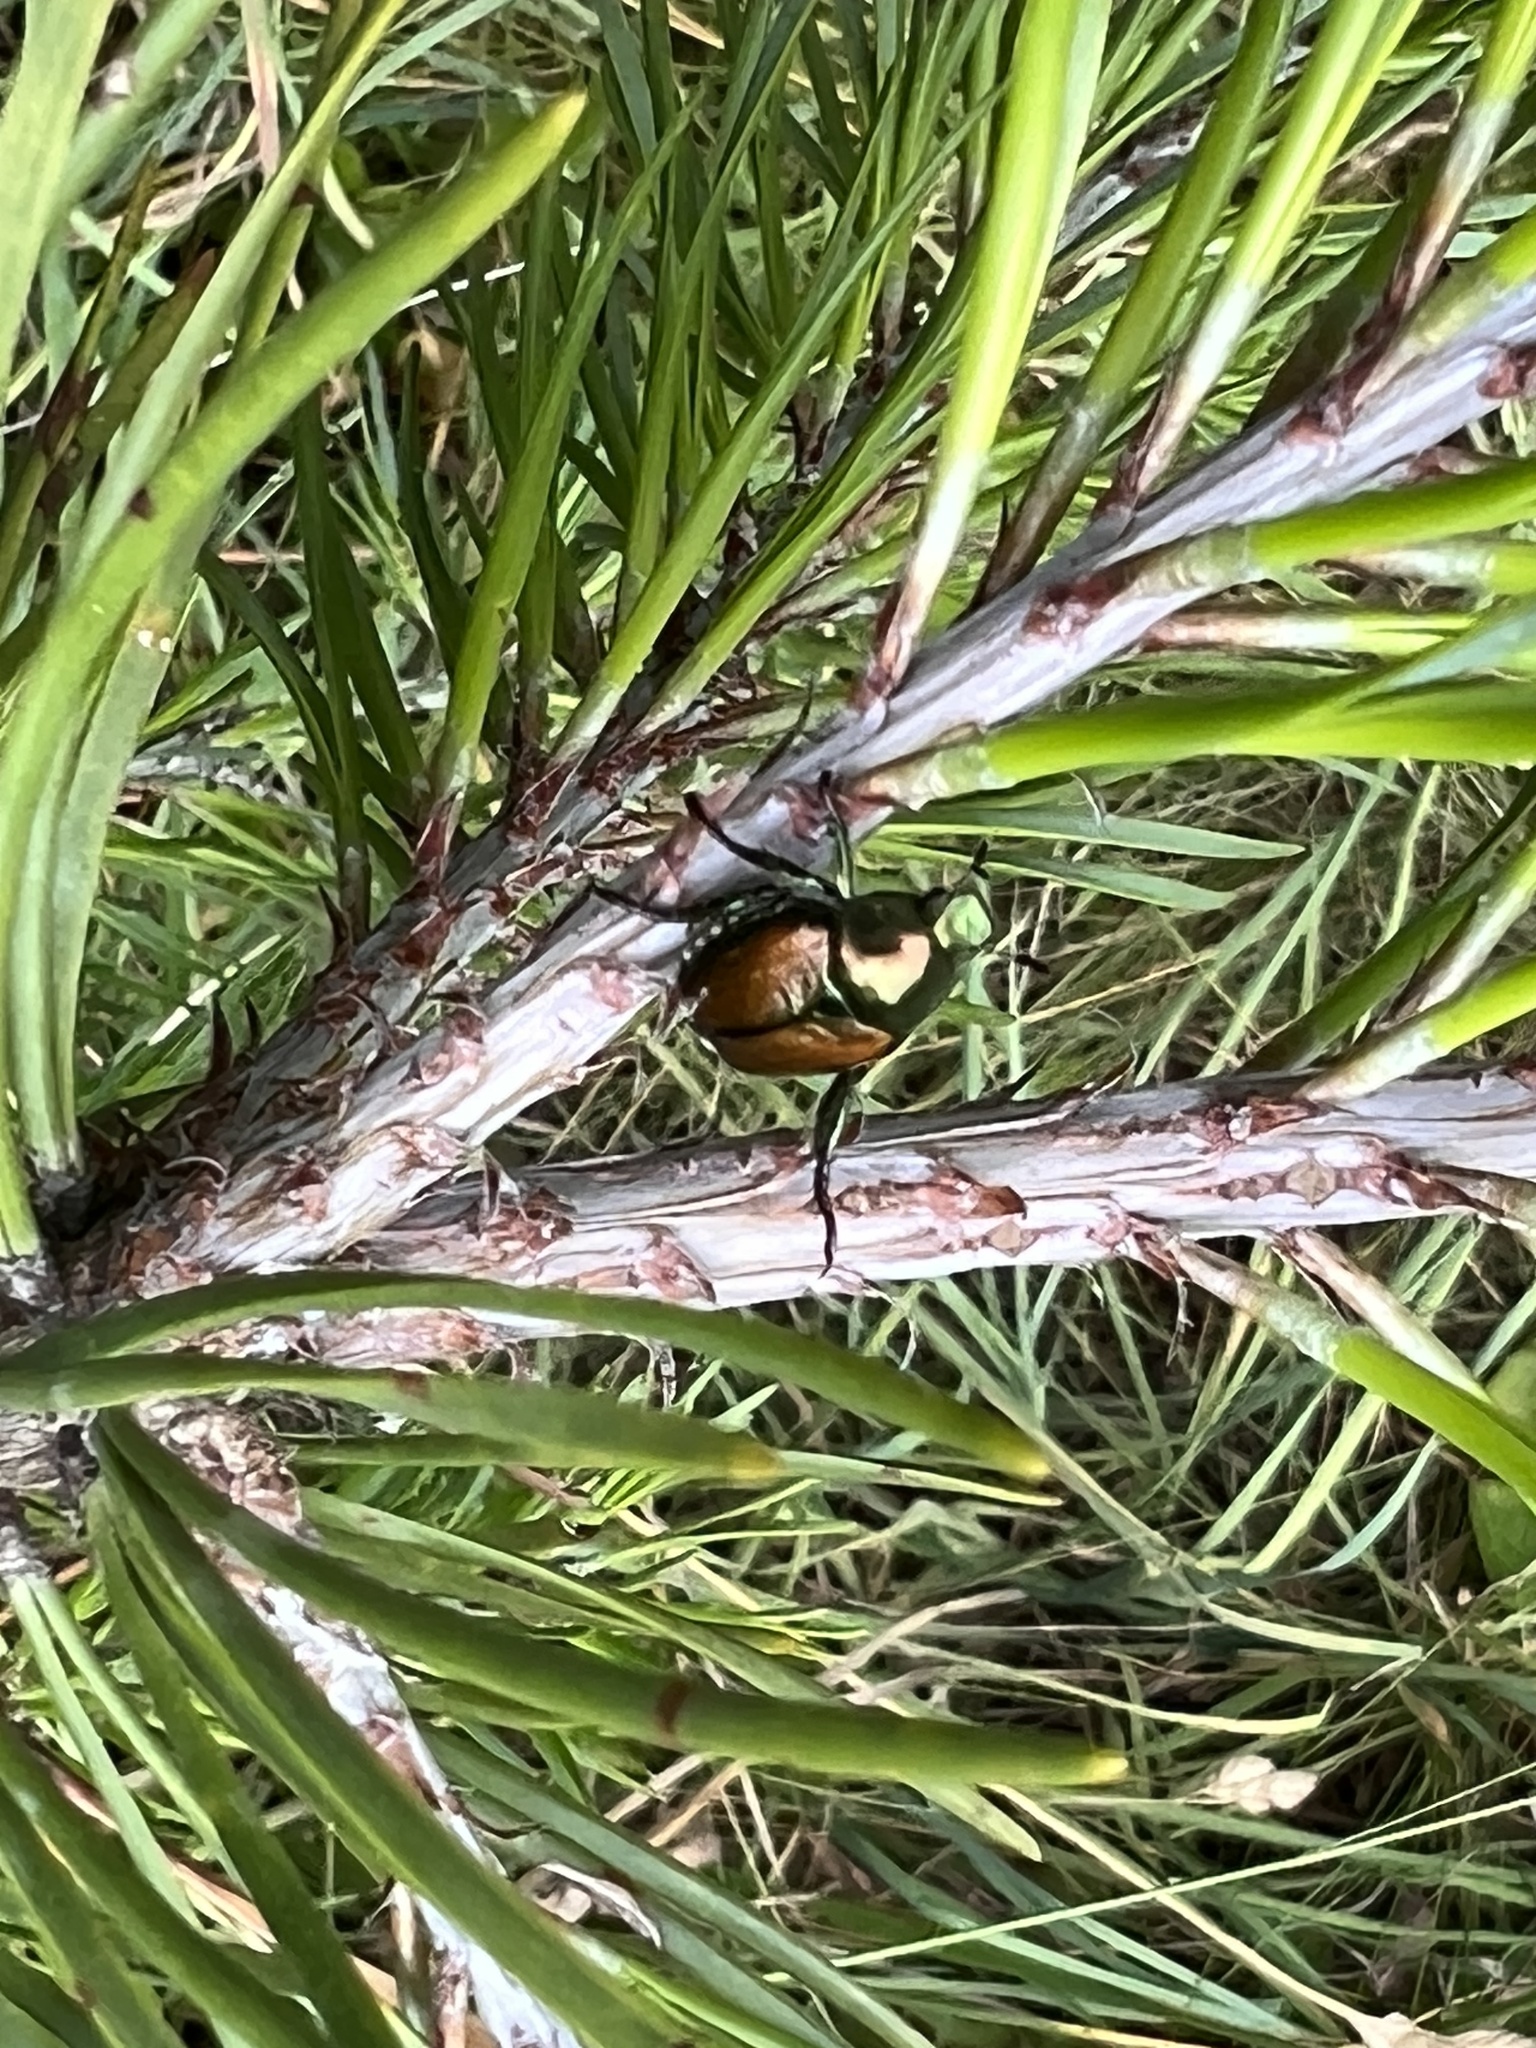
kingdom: Animalia
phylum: Arthropoda
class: Insecta
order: Coleoptera
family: Scarabaeidae
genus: Popillia
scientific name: Popillia japonica
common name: Japanese beetle
